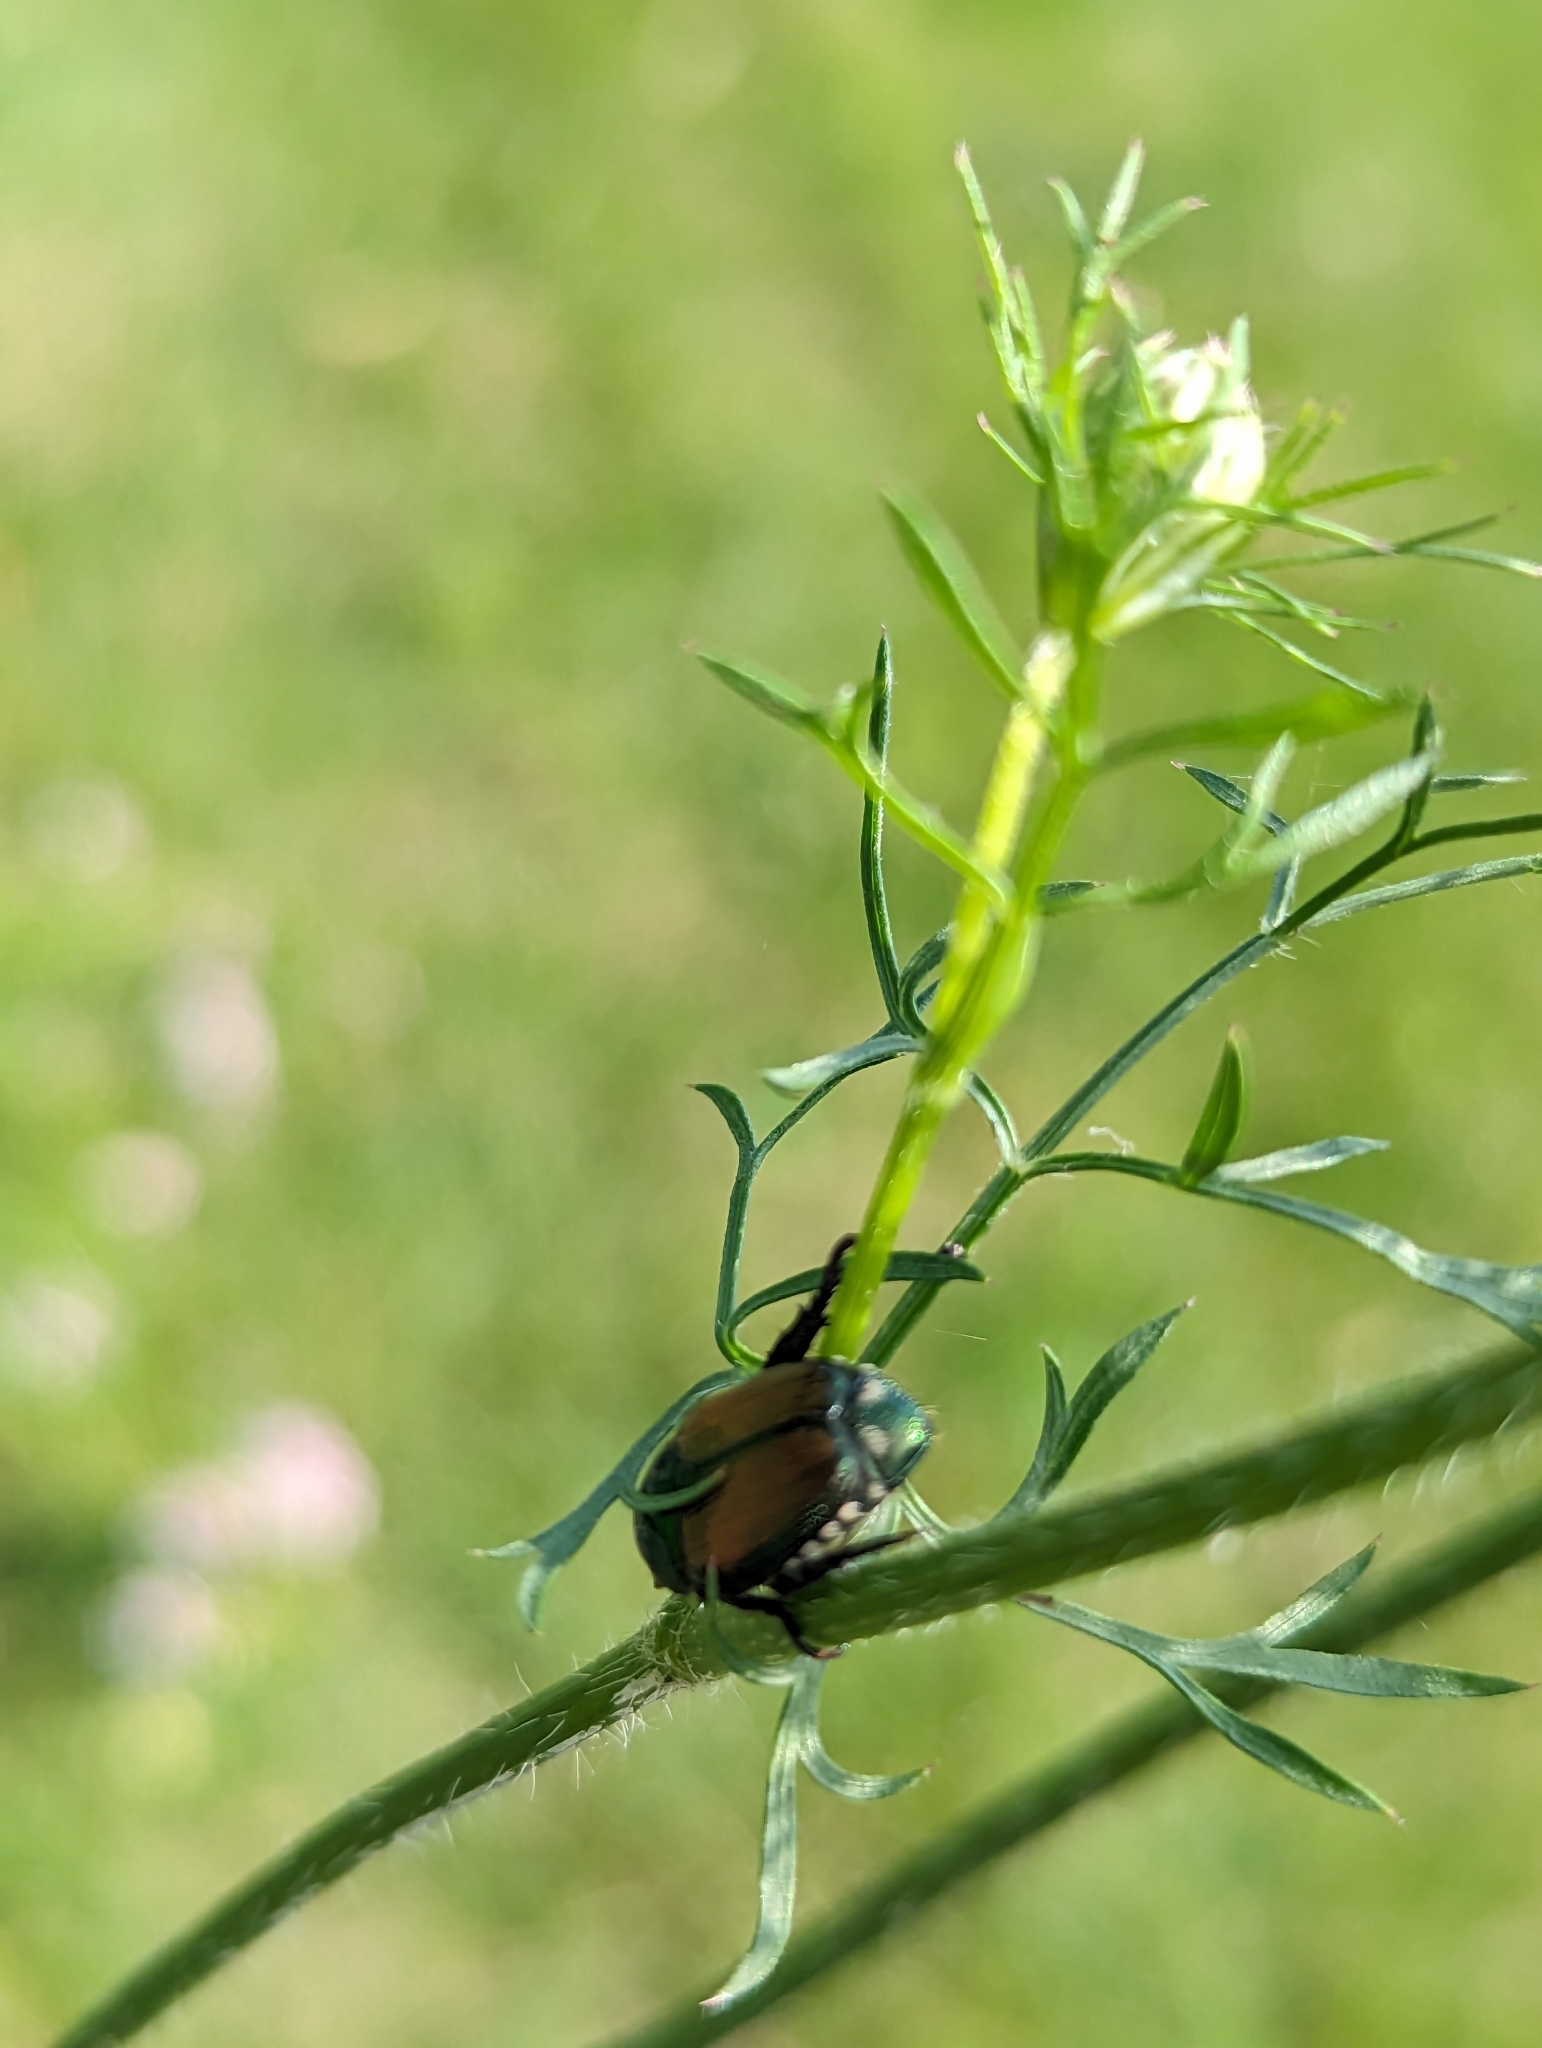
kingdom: Animalia
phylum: Arthropoda
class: Insecta
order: Coleoptera
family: Scarabaeidae
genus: Popillia
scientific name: Popillia japonica
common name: Japanese beetle
